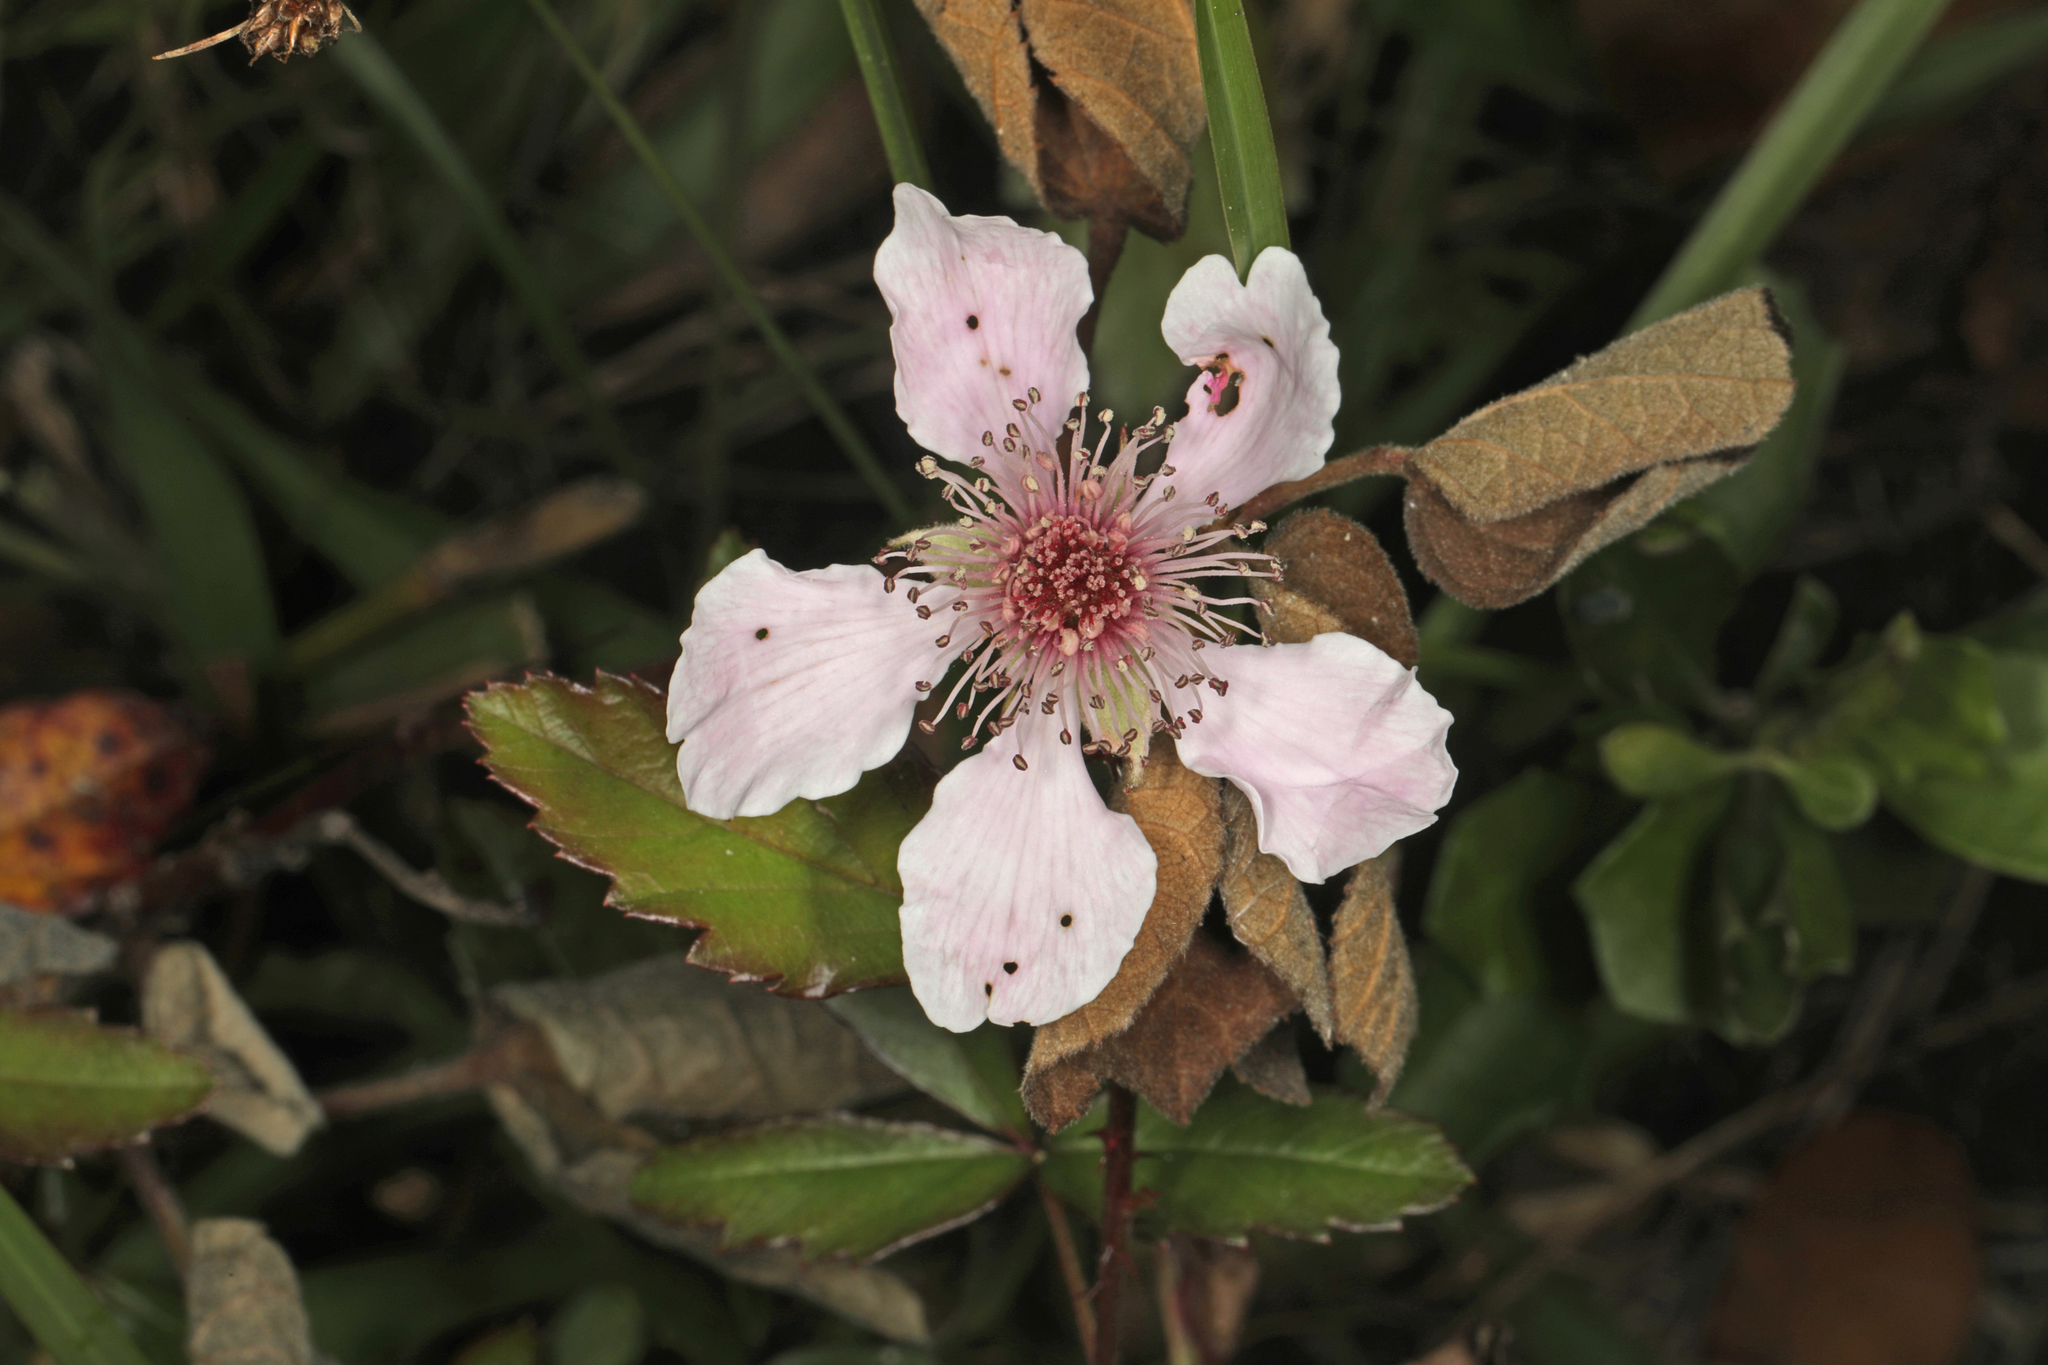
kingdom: Plantae
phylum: Tracheophyta
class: Magnoliopsida
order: Rosales
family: Rosaceae
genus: Rubus
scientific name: Rubus trivialis
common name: Southern dewberry
